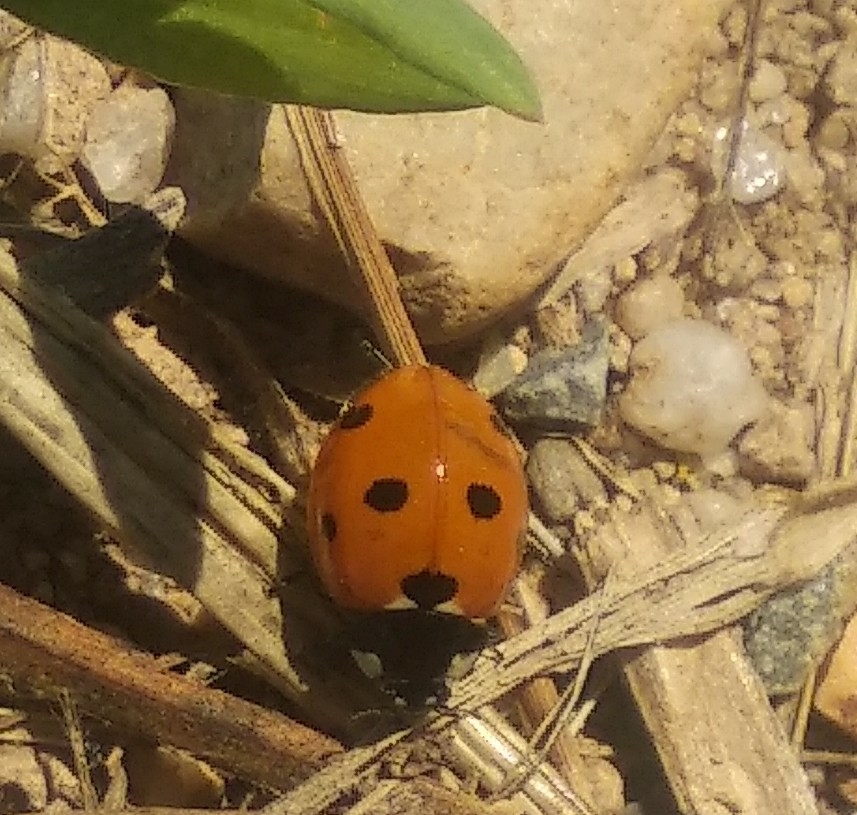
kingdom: Animalia
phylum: Arthropoda
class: Insecta
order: Coleoptera
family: Coccinellidae
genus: Coccinella
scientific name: Coccinella septempunctata
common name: Sevenspotted lady beetle
